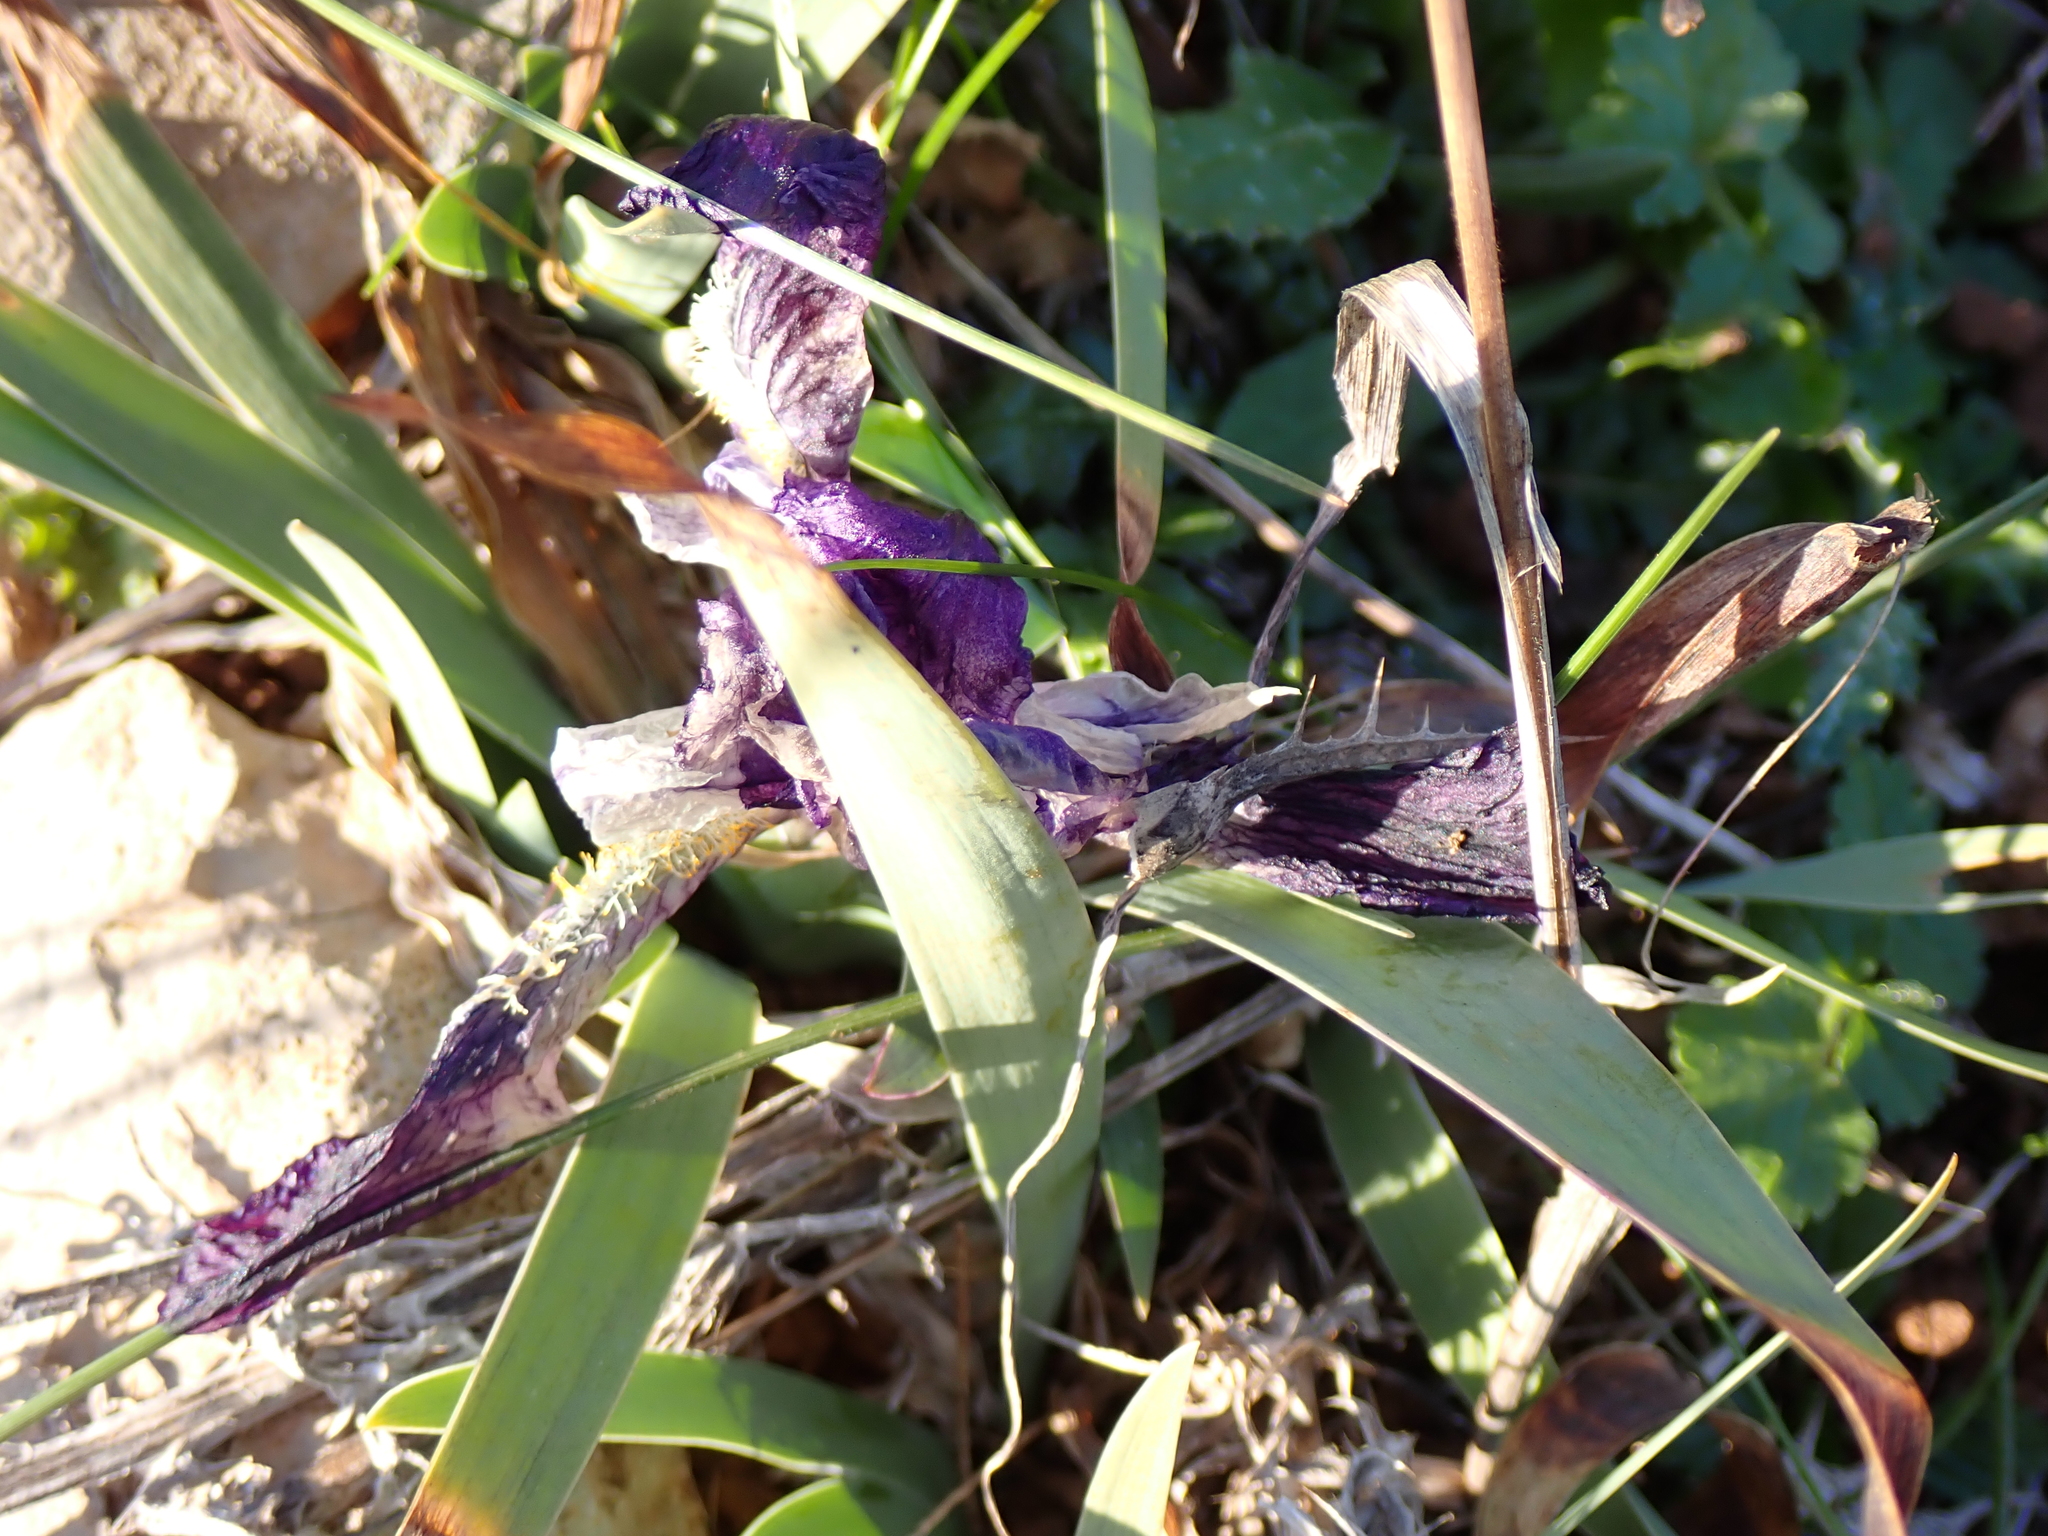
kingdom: Plantae
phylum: Tracheophyta
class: Liliopsida
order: Asparagales
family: Iridaceae
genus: Iris
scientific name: Iris lutescens
